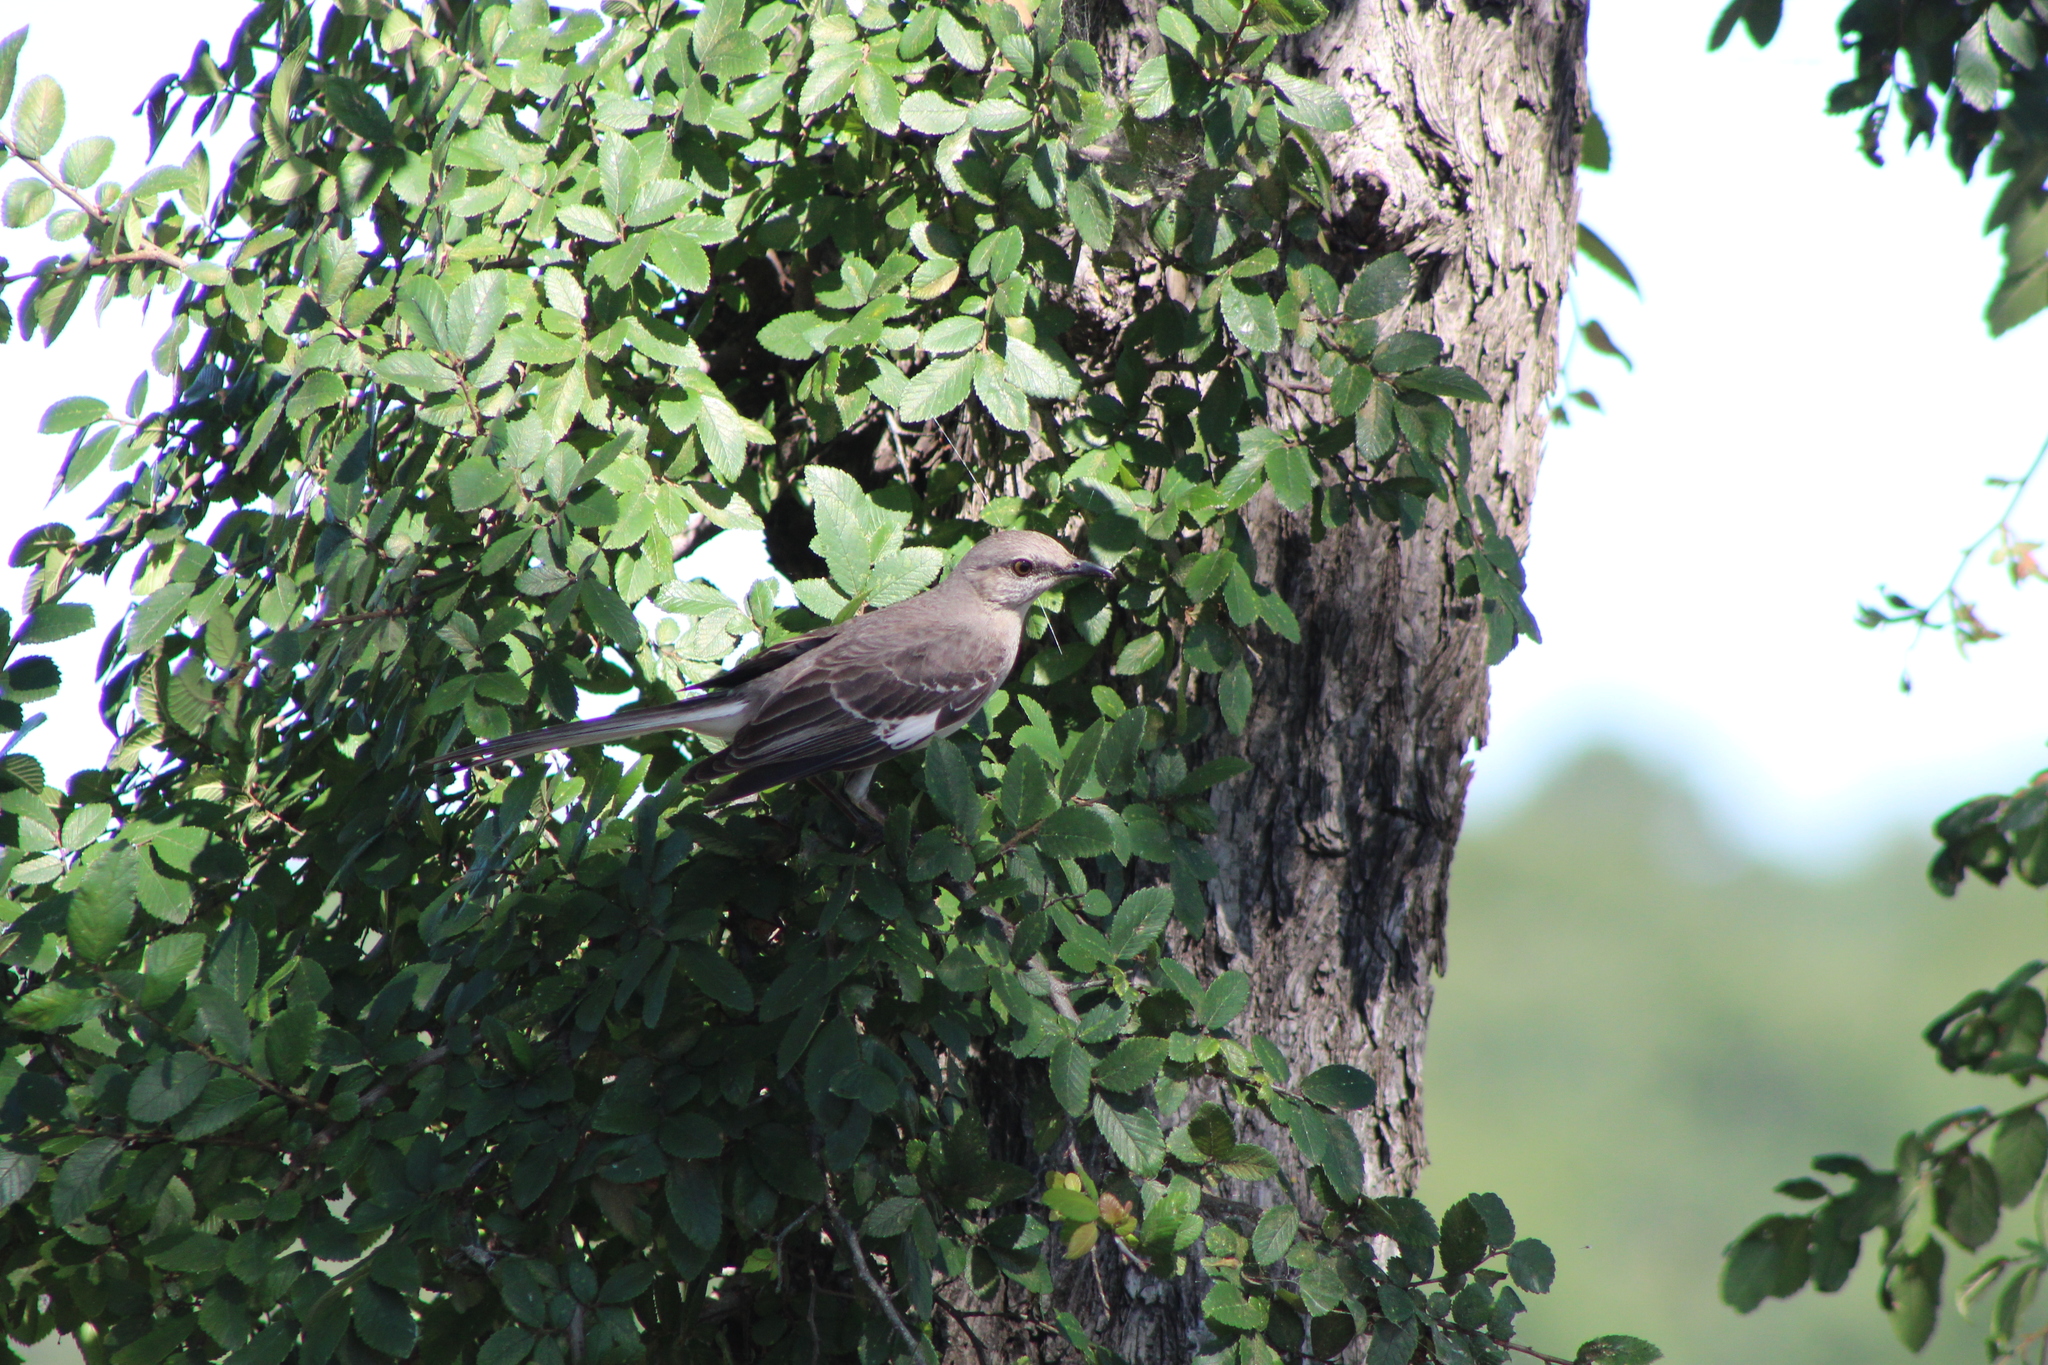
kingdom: Animalia
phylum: Chordata
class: Aves
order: Passeriformes
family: Mimidae
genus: Mimus
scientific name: Mimus polyglottos
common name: Northern mockingbird
